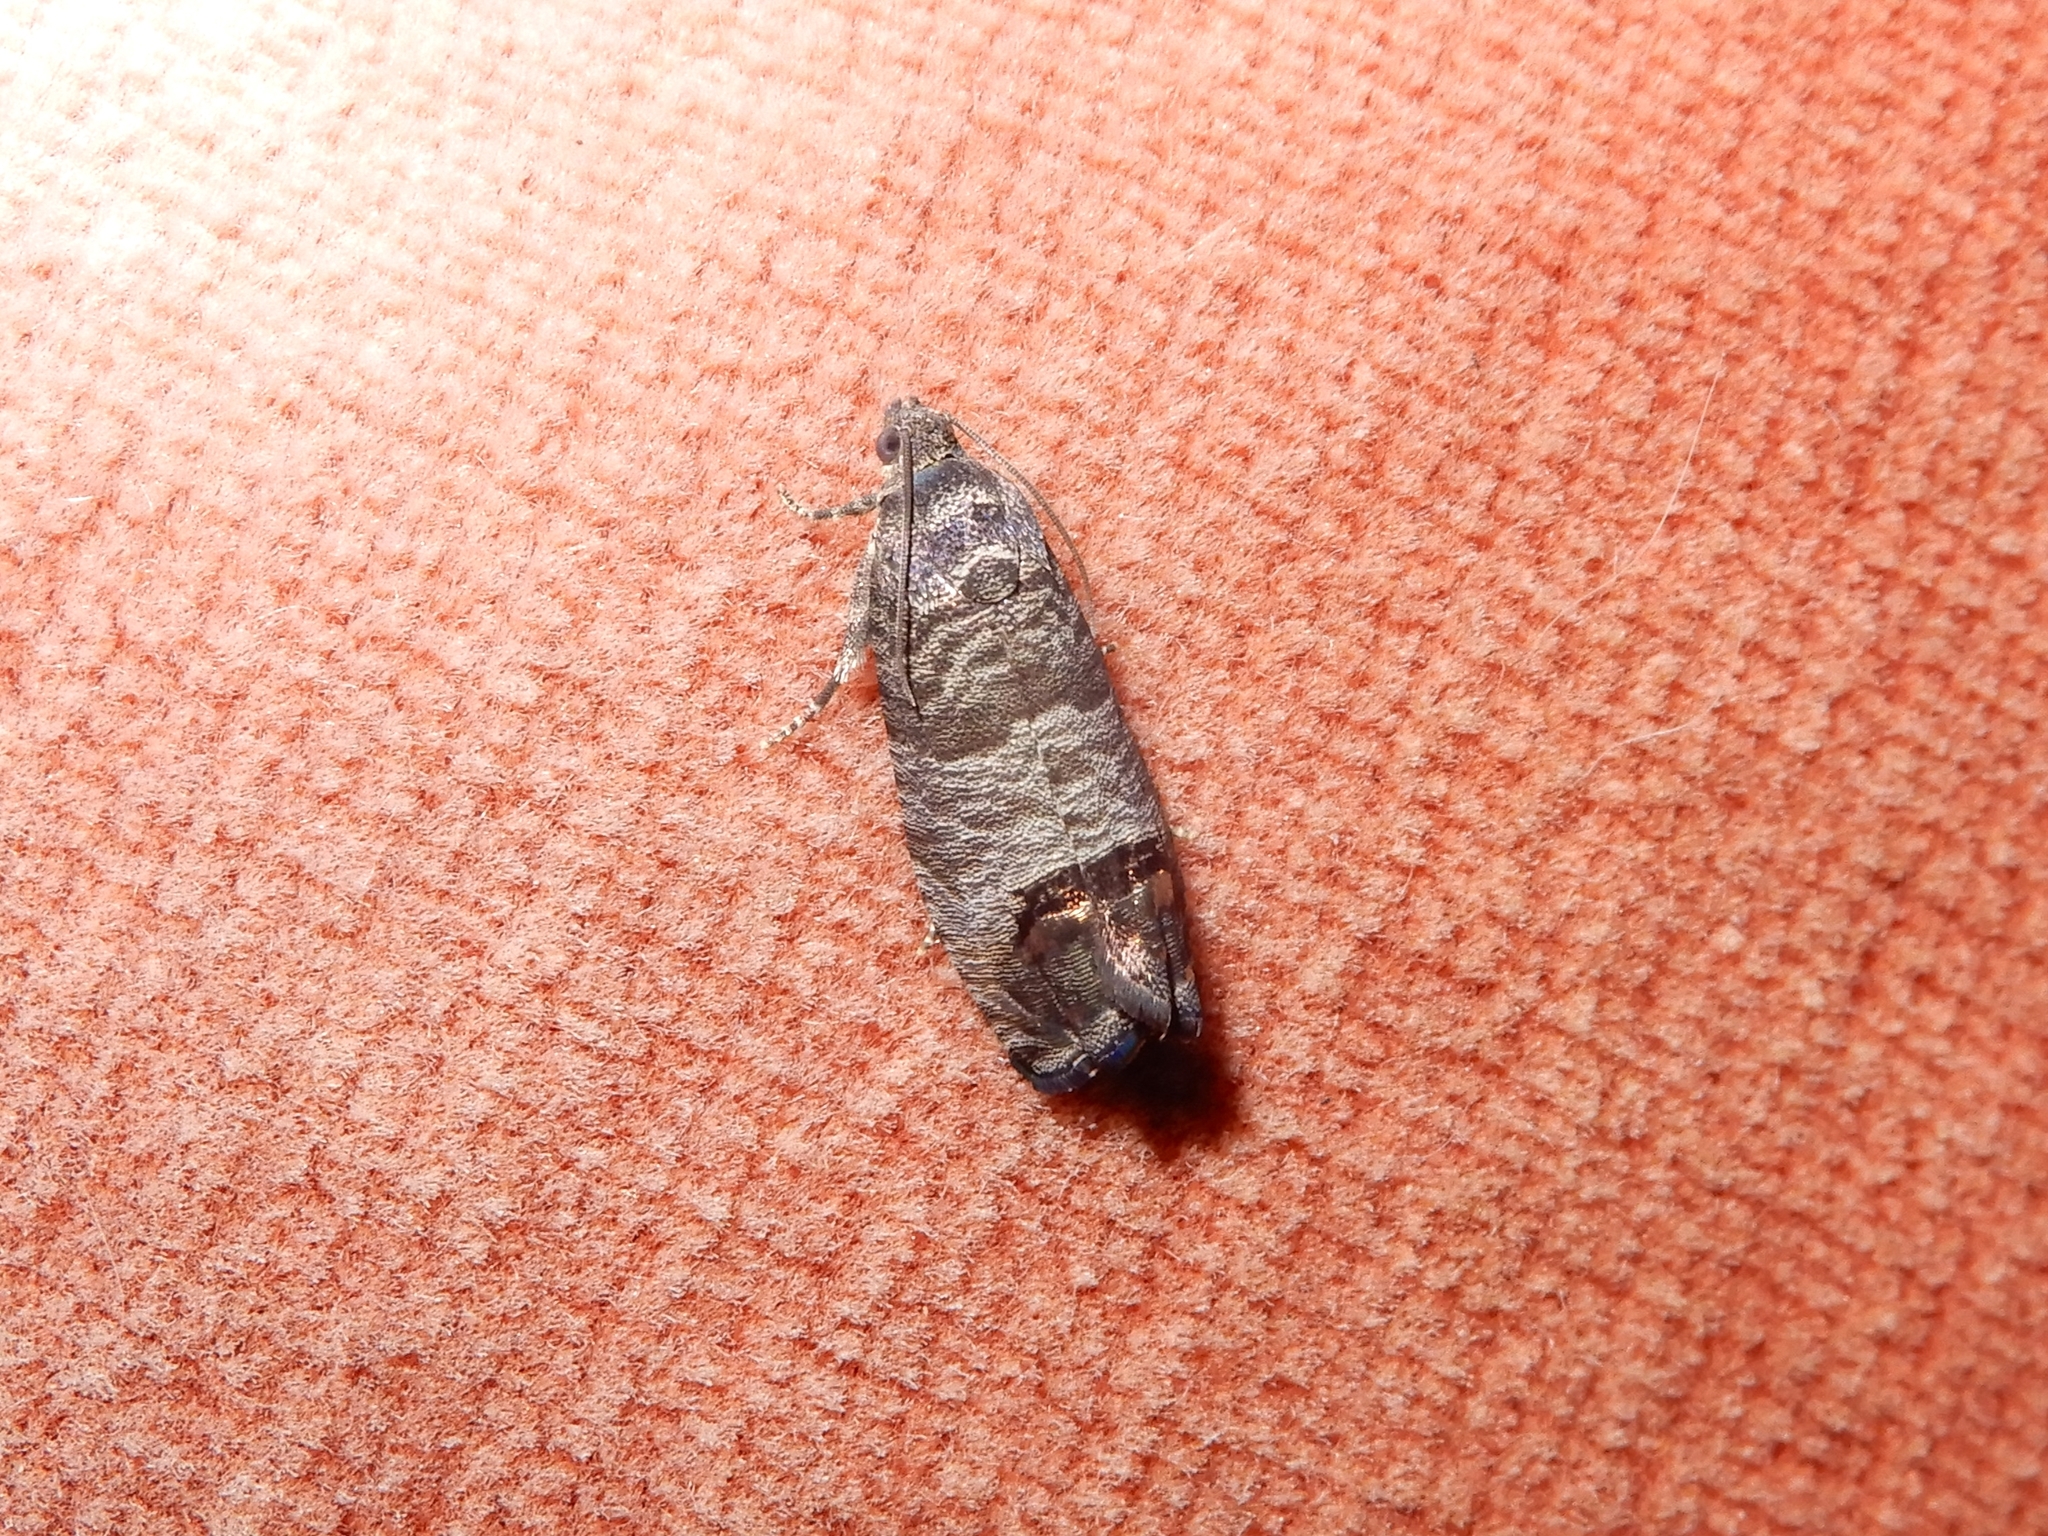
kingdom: Animalia
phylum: Arthropoda
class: Insecta
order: Lepidoptera
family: Tortricidae
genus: Cydia
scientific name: Cydia pomonella
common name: Codling moth
